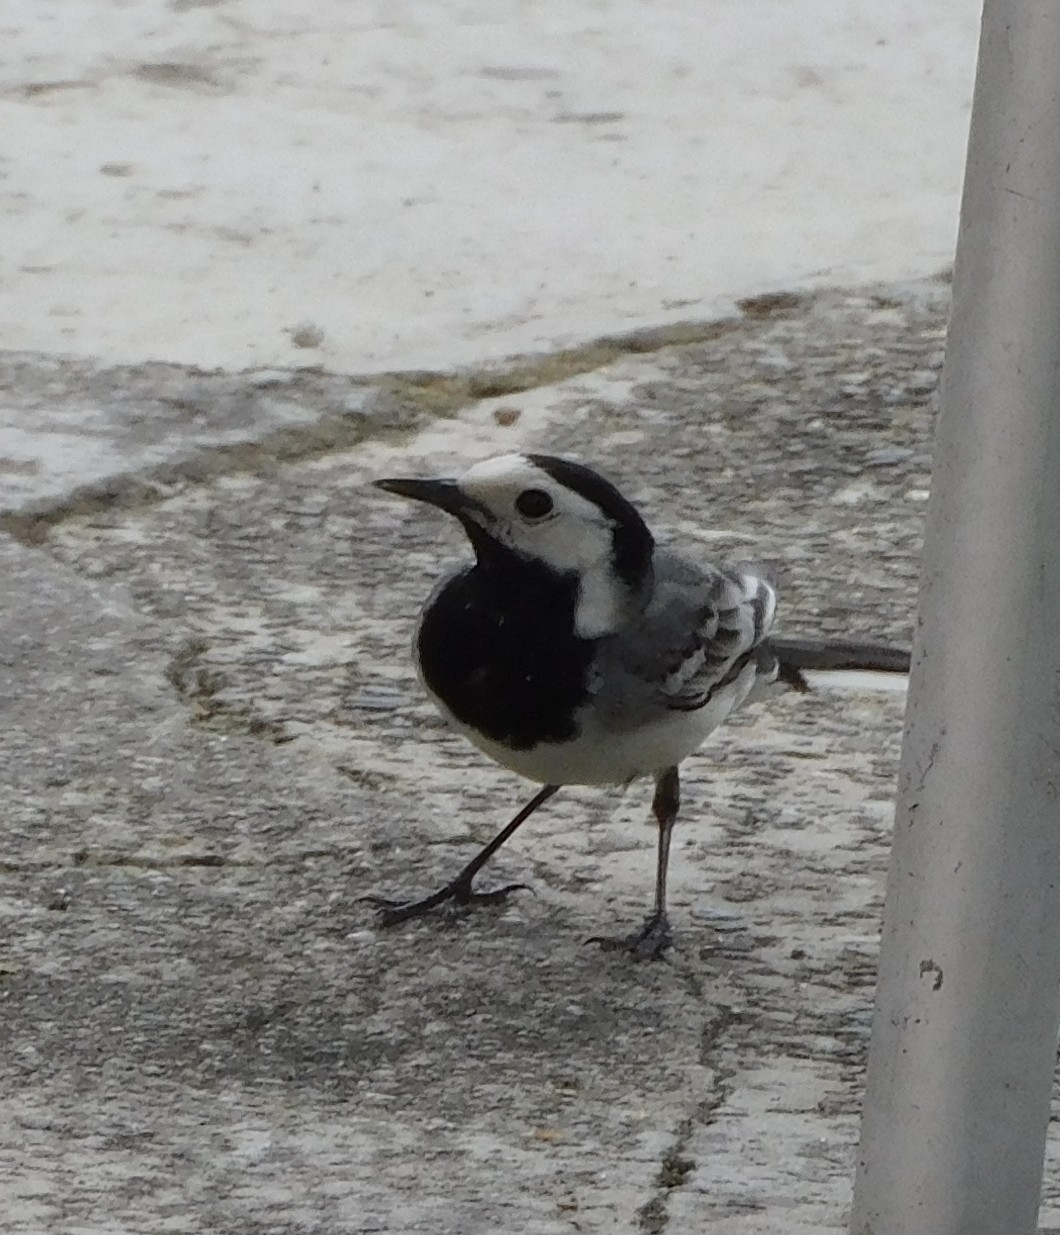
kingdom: Animalia
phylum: Chordata
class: Aves
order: Passeriformes
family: Motacillidae
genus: Motacilla
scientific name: Motacilla alba
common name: White wagtail
